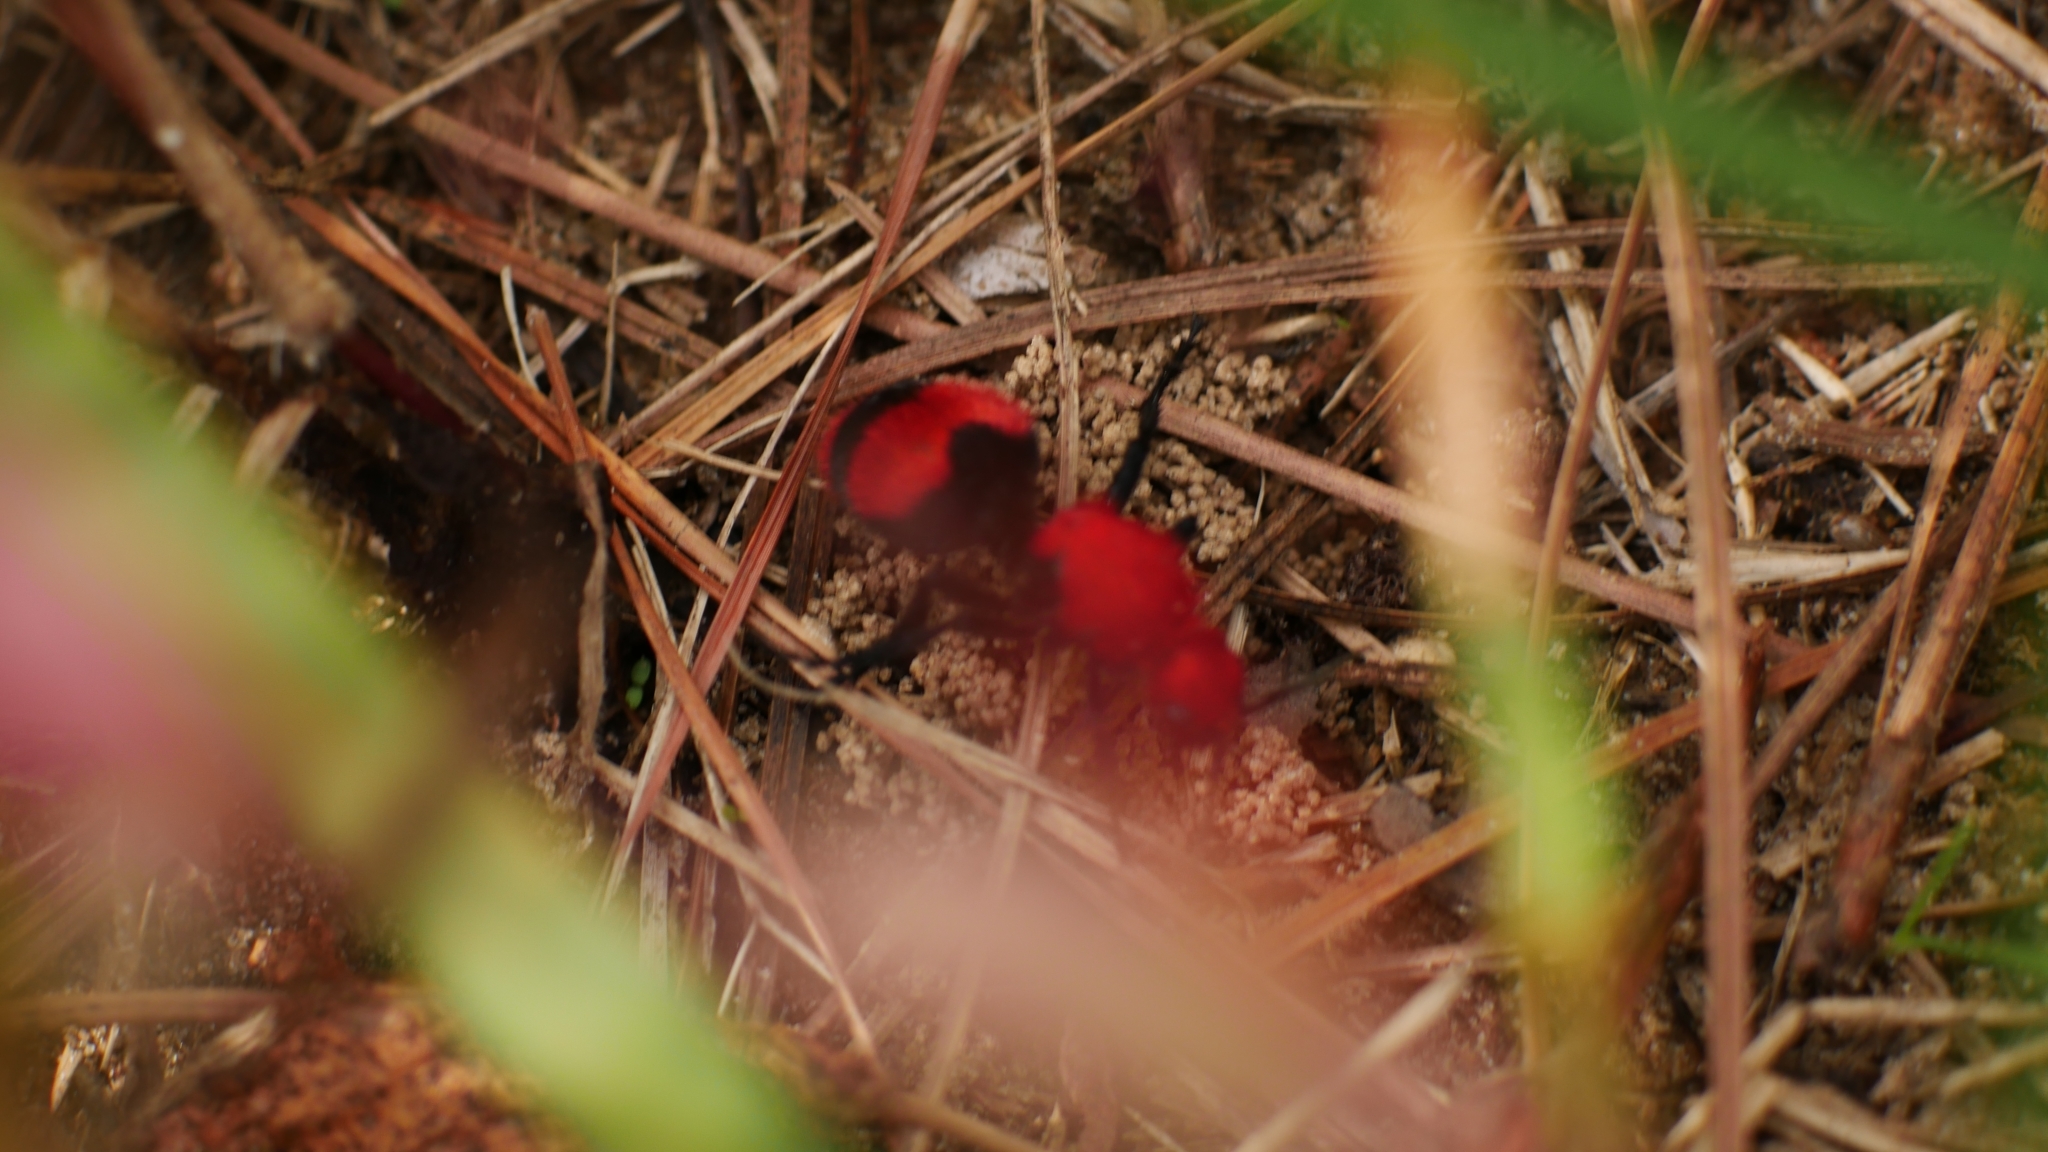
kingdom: Animalia
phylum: Arthropoda
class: Insecta
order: Hymenoptera
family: Mutillidae
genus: Dasymutilla
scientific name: Dasymutilla occidentalis
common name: Common eastern velvet ant
